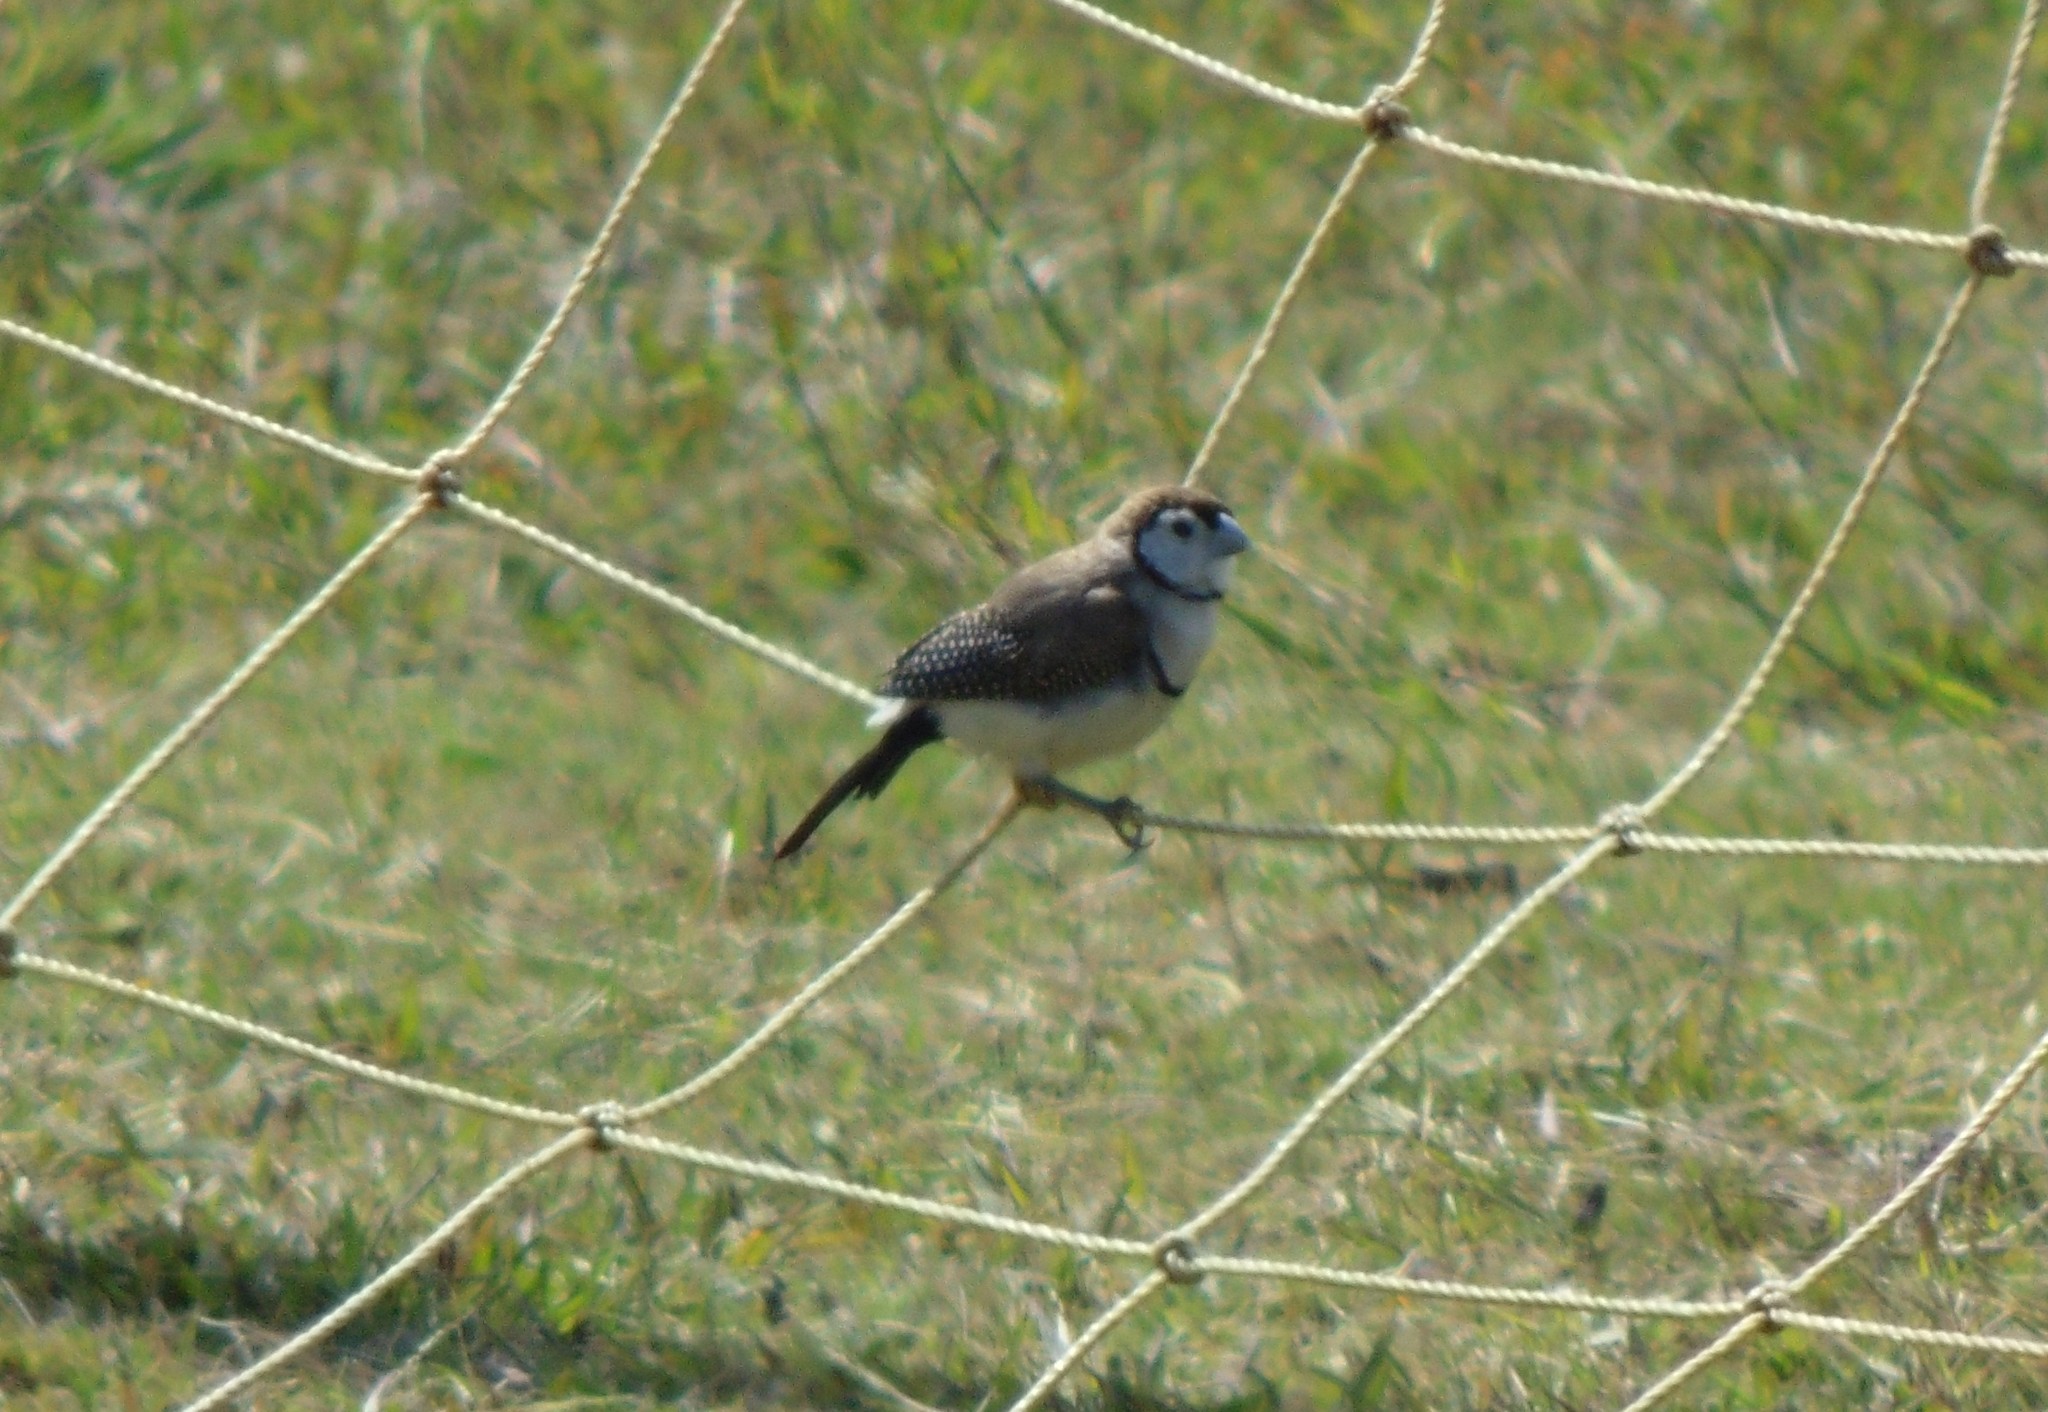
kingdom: Animalia
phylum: Chordata
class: Aves
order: Passeriformes
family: Estrildidae
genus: Taeniopygia
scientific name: Taeniopygia bichenovii
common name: Double-barred finch
